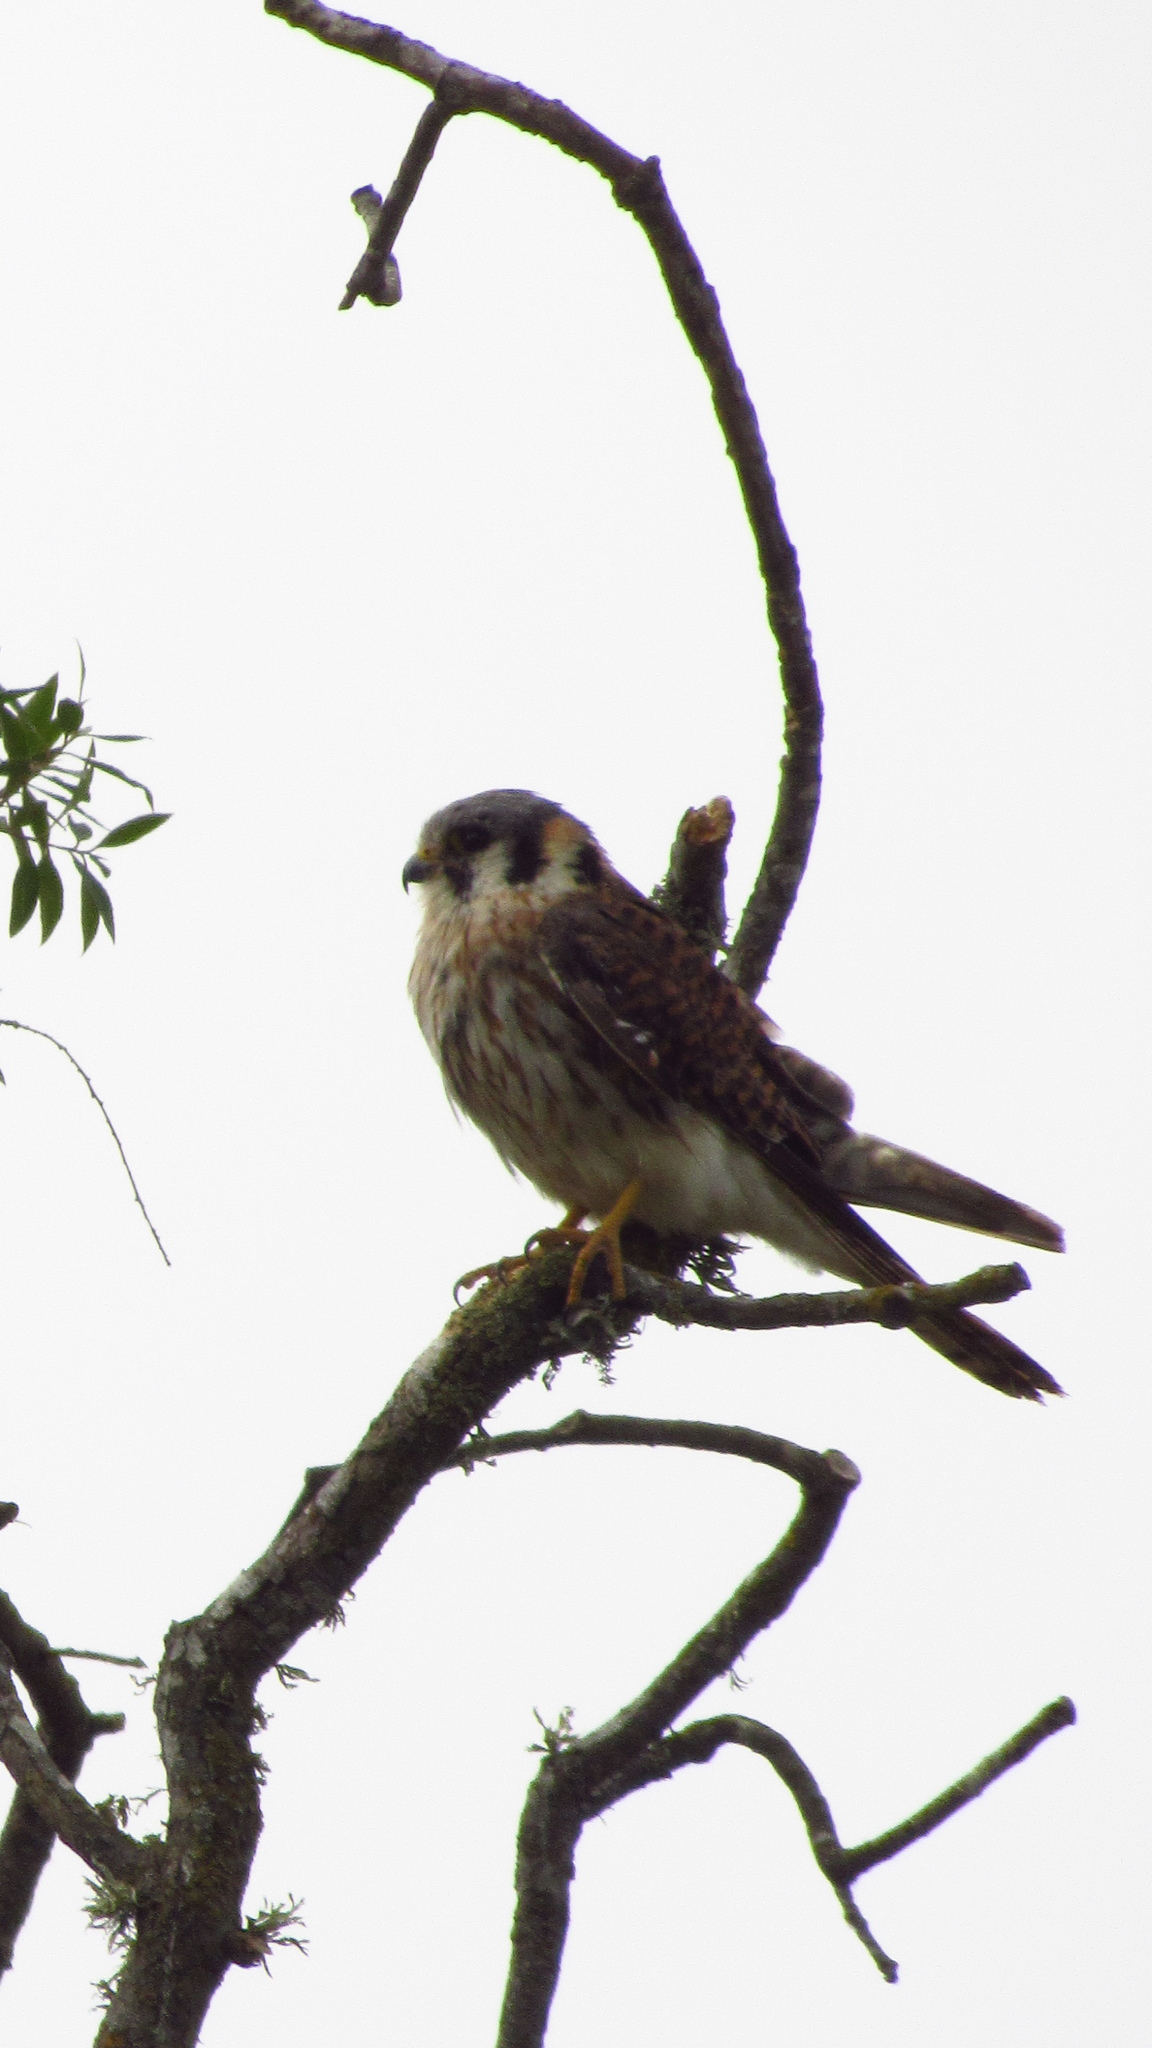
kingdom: Animalia
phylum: Chordata
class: Aves
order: Falconiformes
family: Falconidae
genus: Falco
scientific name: Falco sparverius
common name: American kestrel
